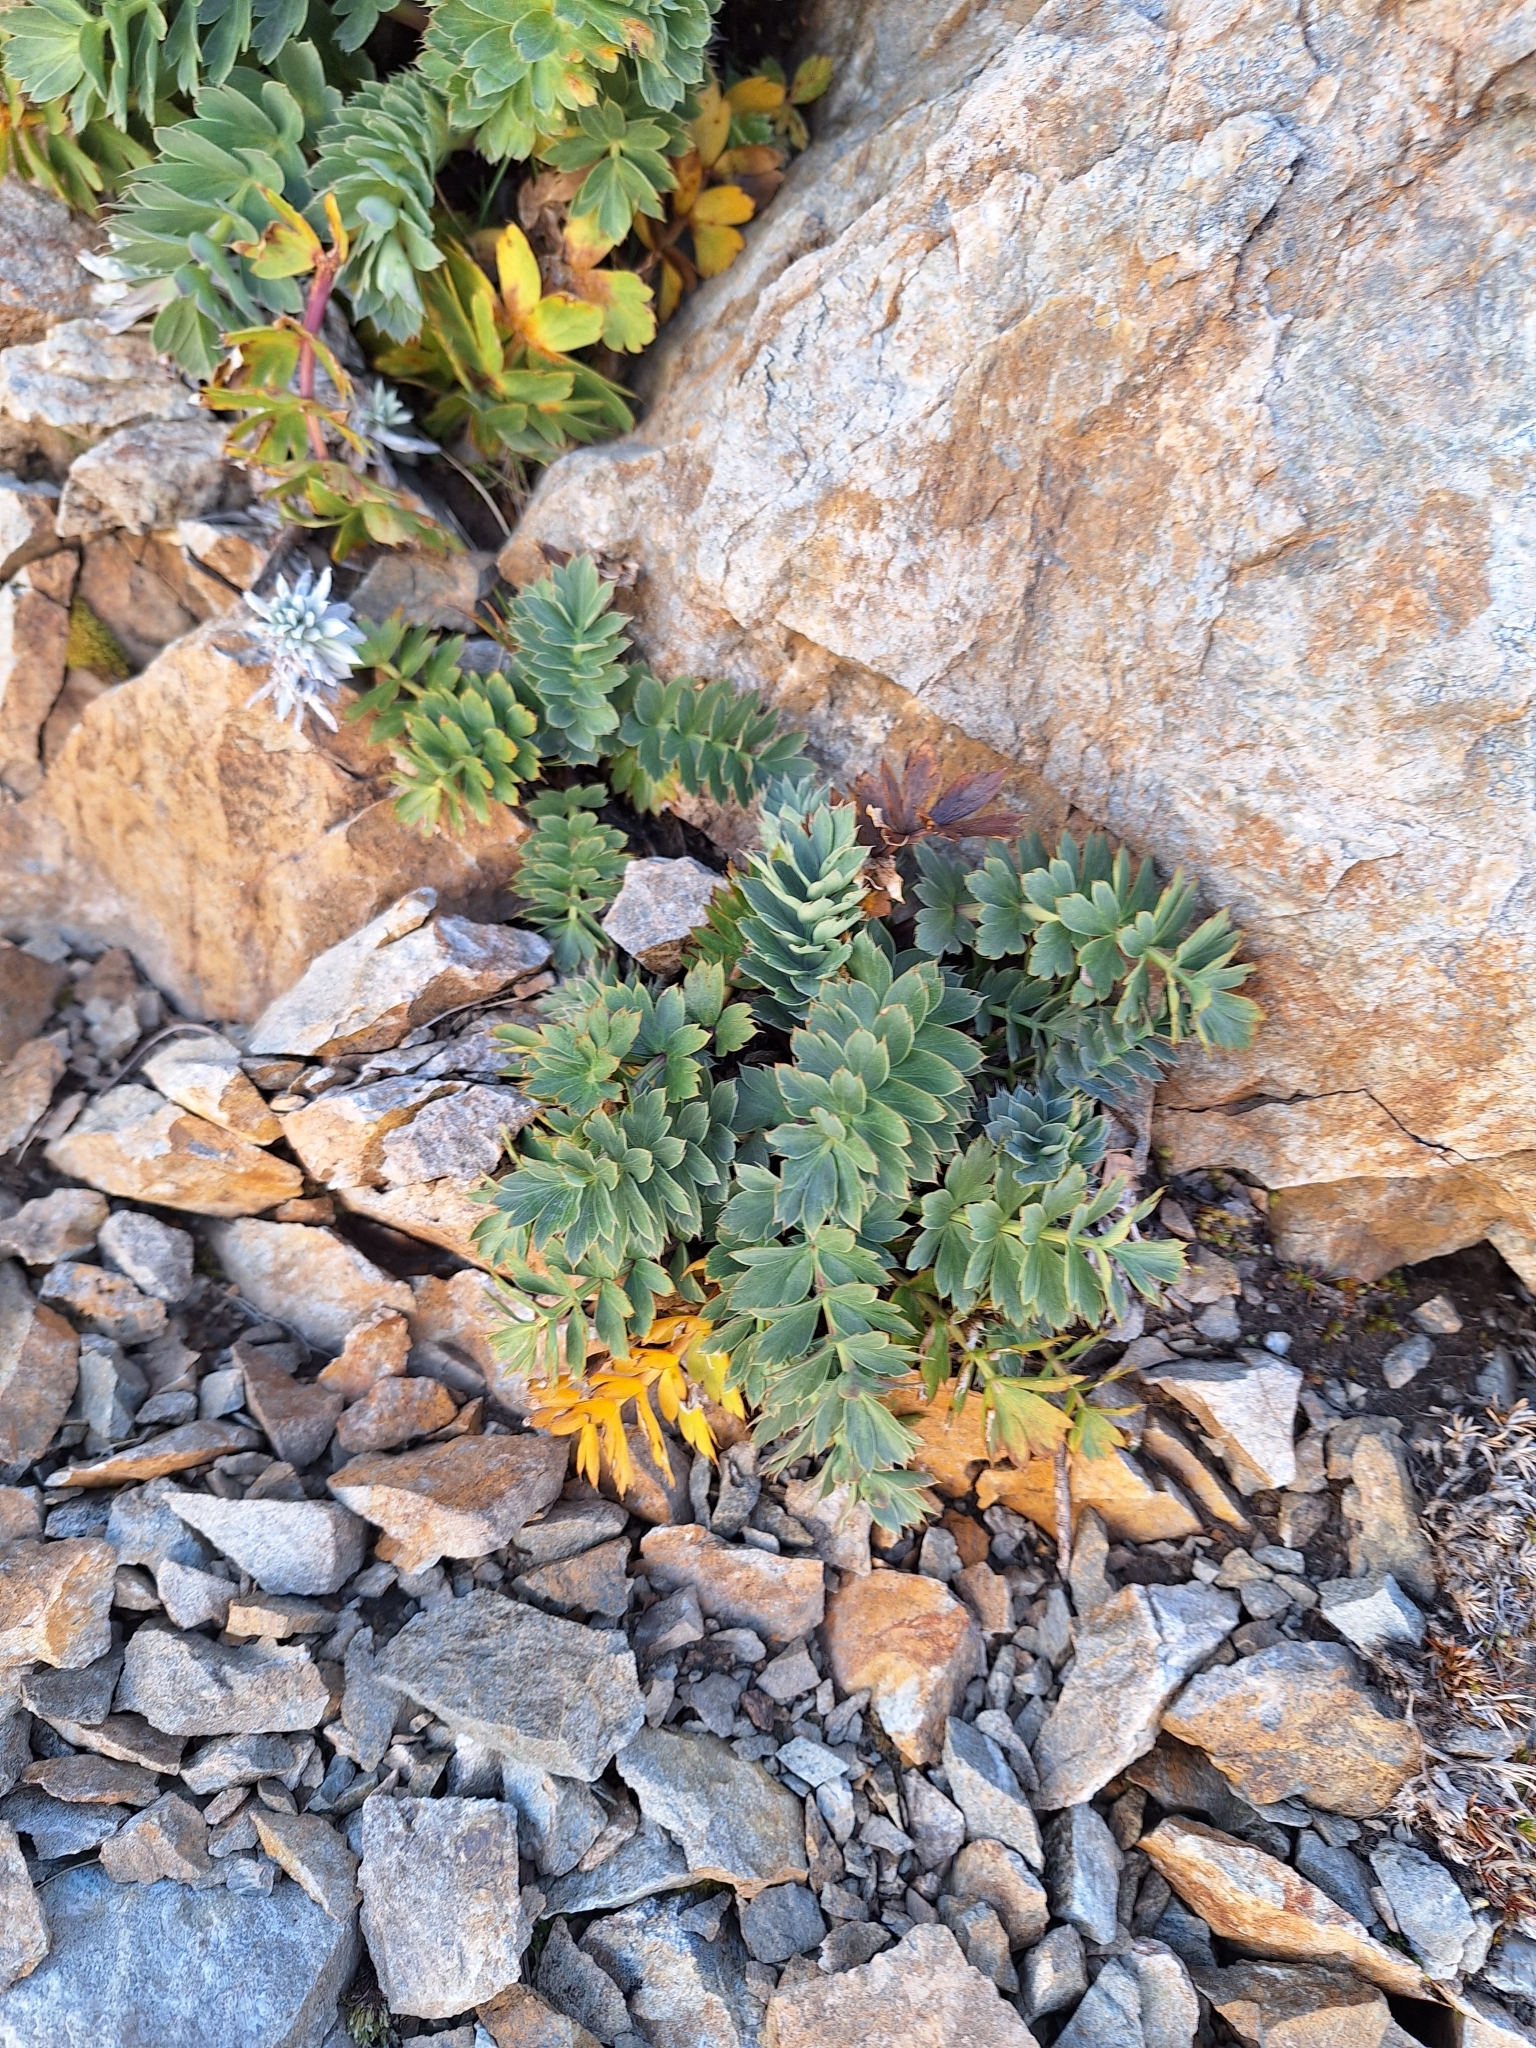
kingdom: Plantae
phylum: Tracheophyta
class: Magnoliopsida
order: Apiales
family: Apiaceae
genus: Anisotome
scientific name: Anisotome pilifera
